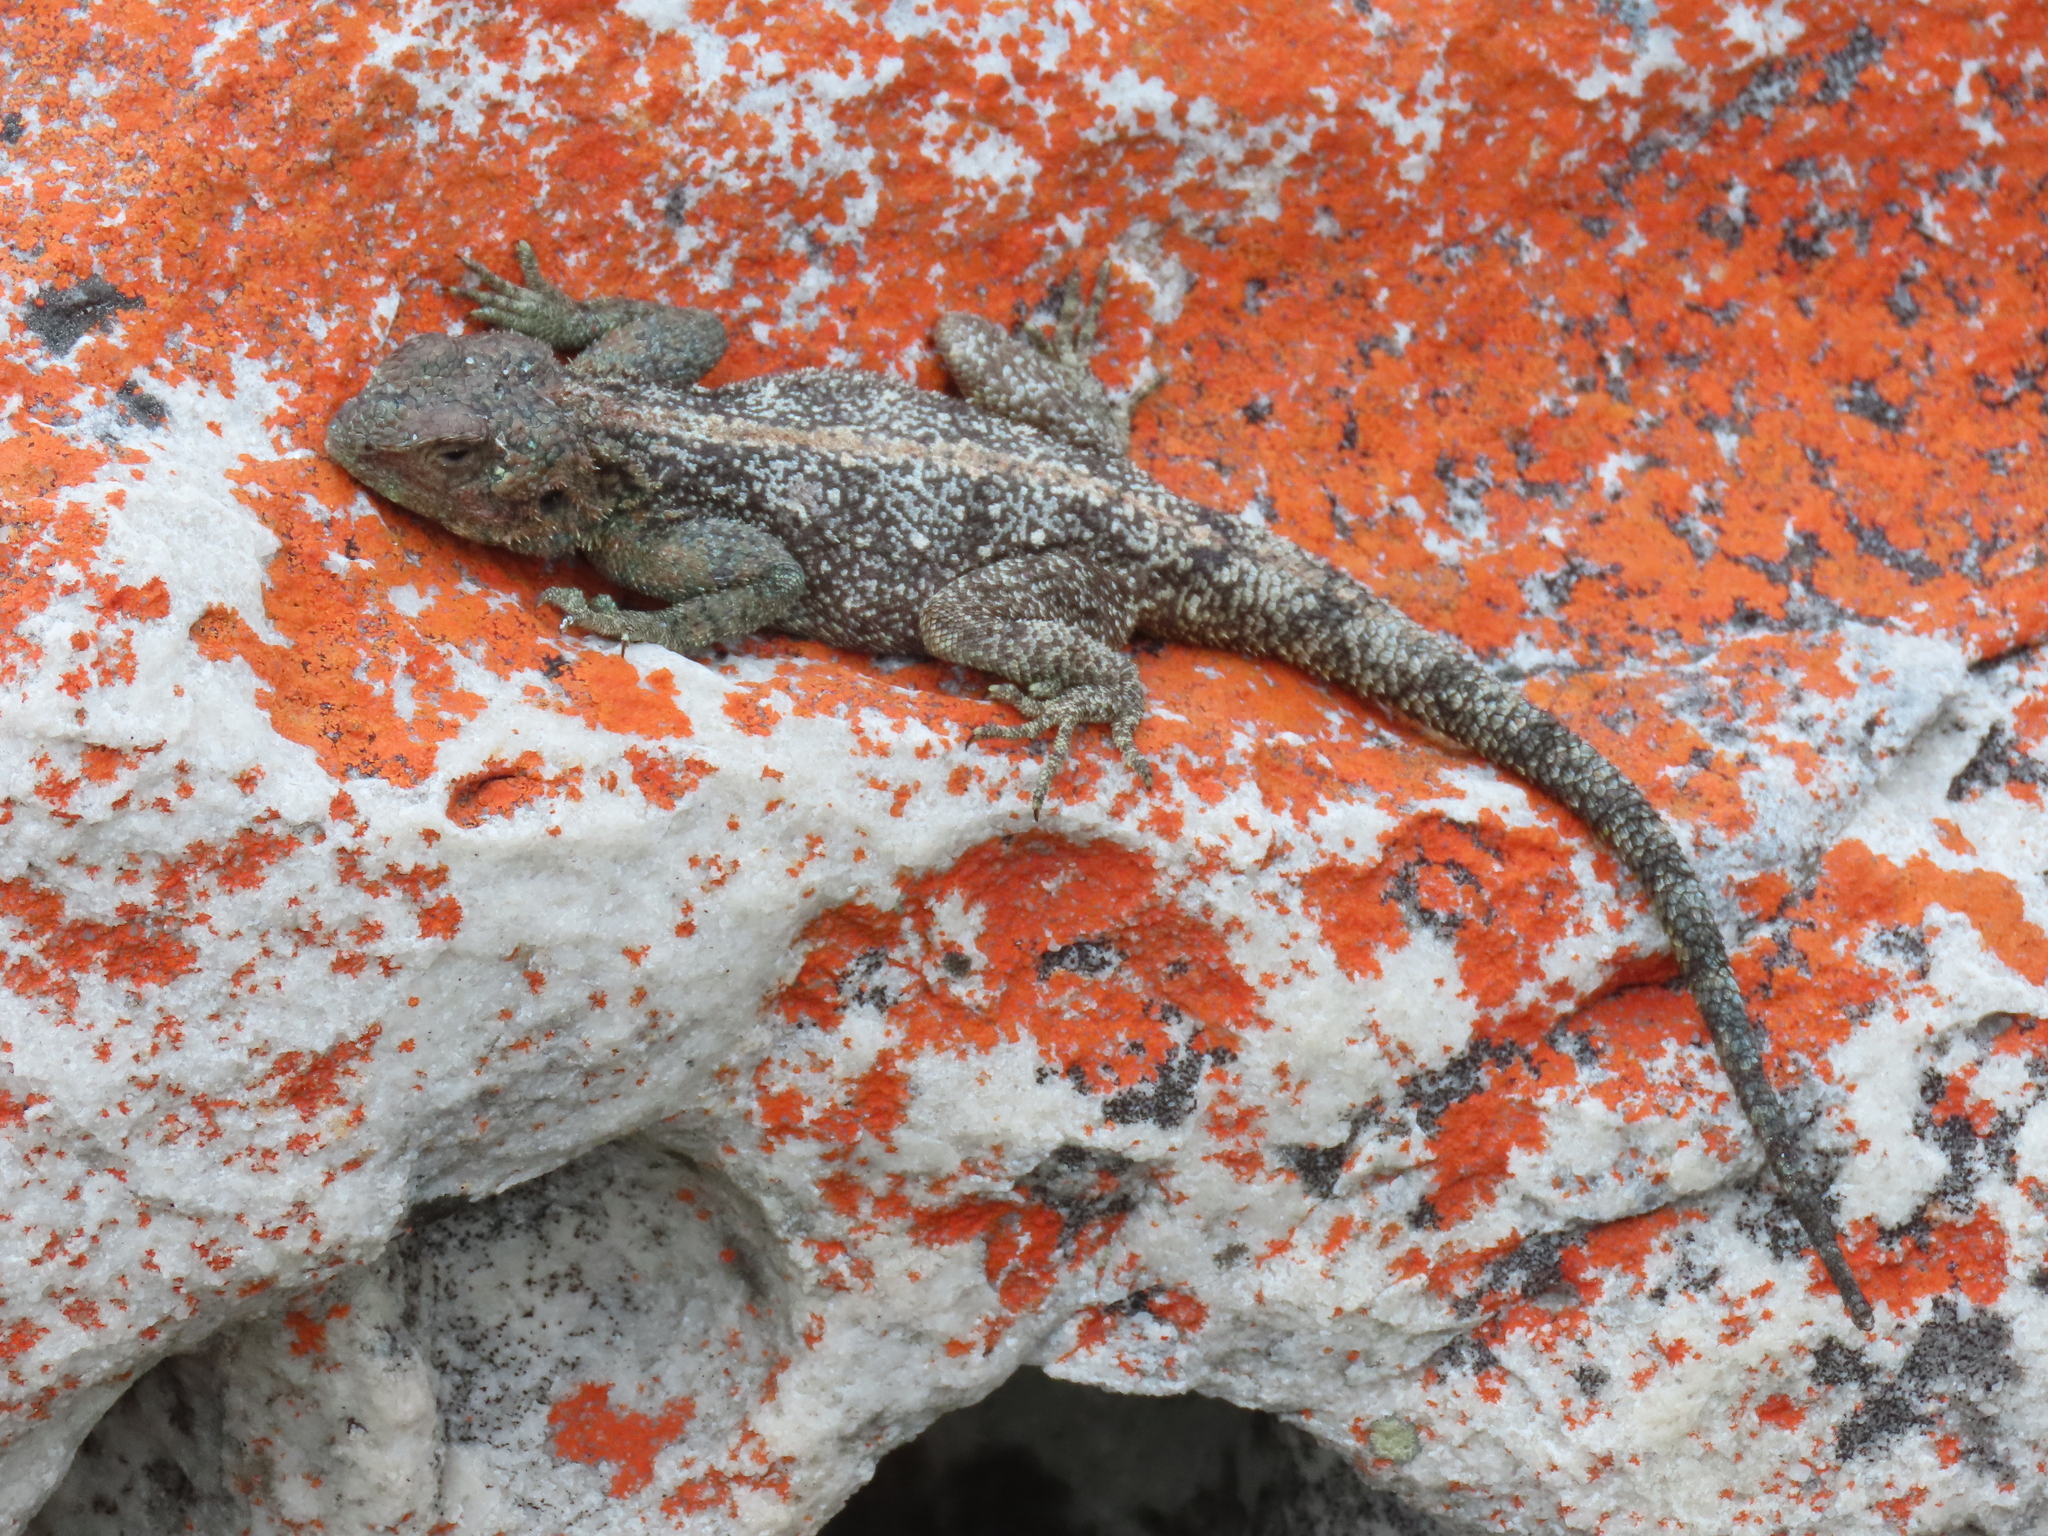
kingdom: Animalia
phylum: Chordata
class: Squamata
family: Agamidae
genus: Agama
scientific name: Agama atra
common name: Southern african rock agama
